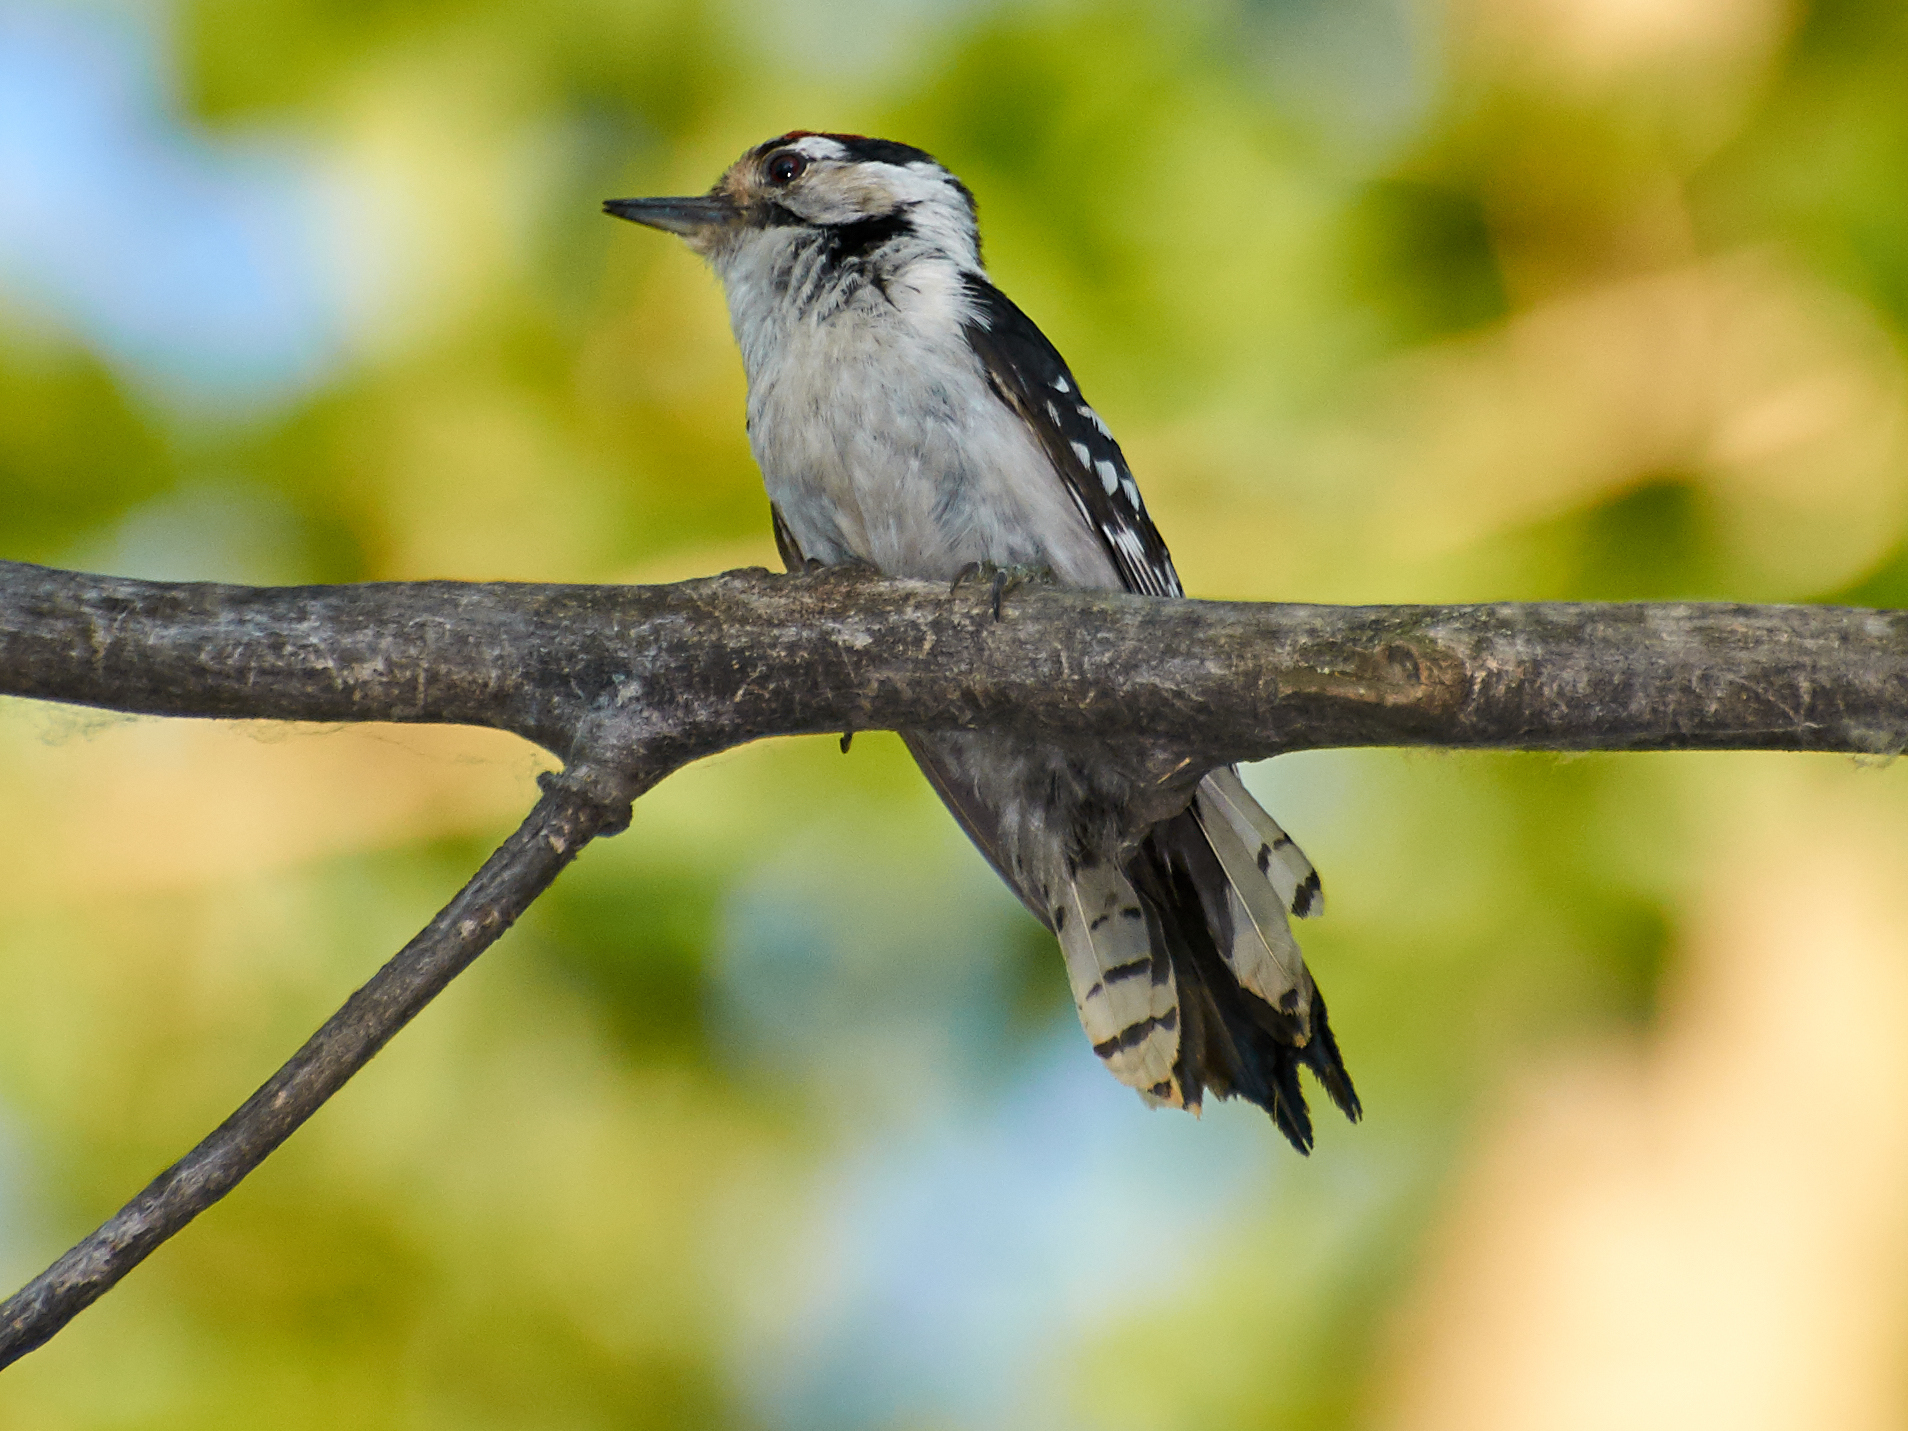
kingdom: Animalia
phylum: Chordata
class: Aves
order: Piciformes
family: Picidae
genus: Dryobates
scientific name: Dryobates minor
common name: Lesser spotted woodpecker
